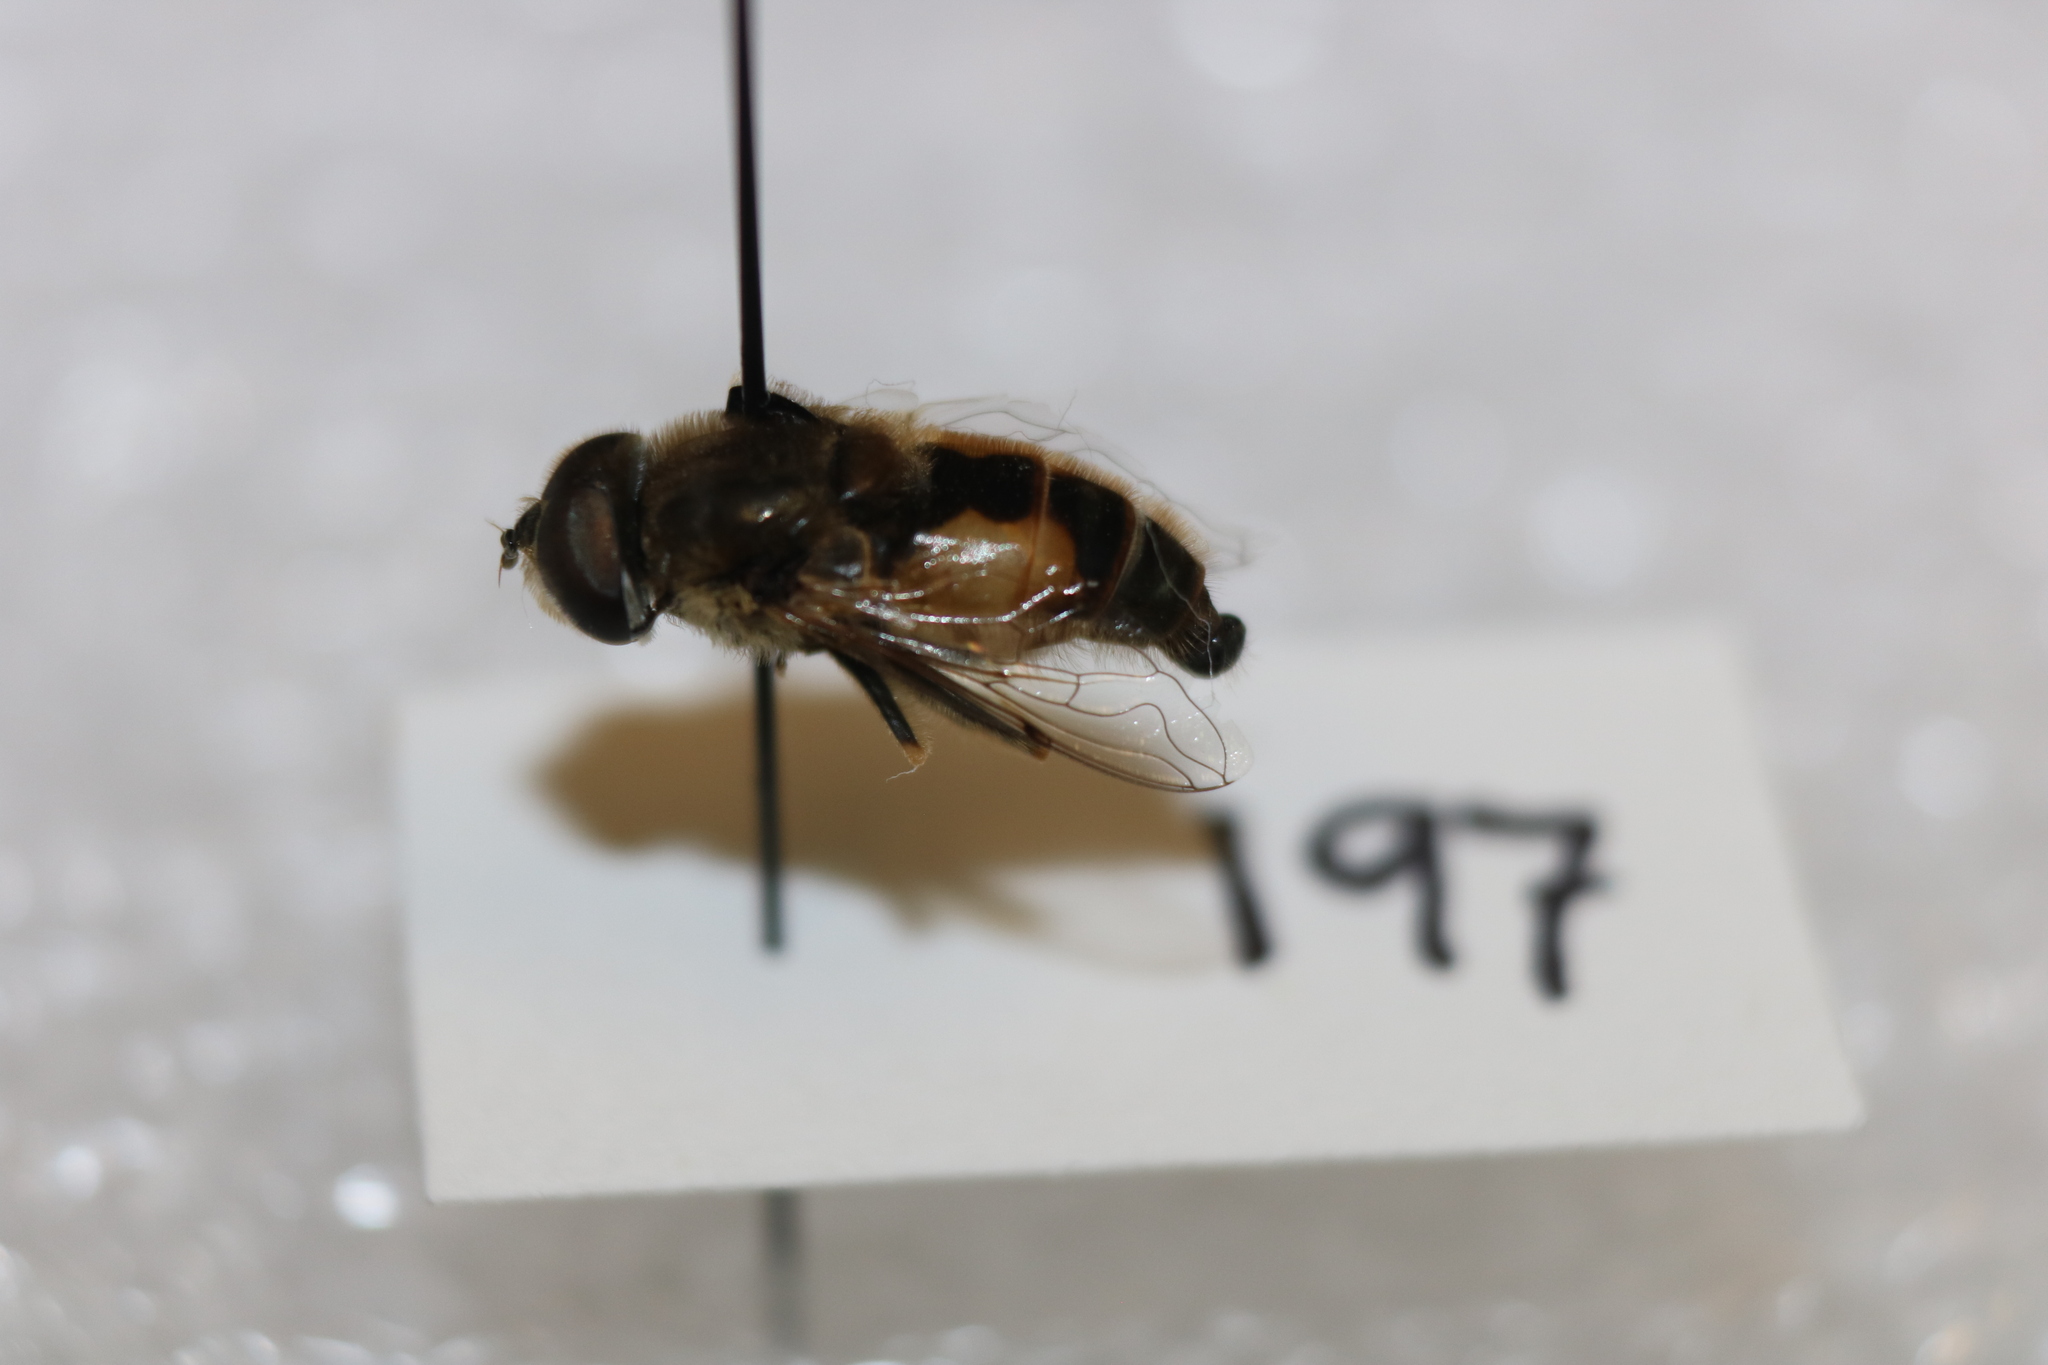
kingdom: Animalia
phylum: Arthropoda
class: Insecta
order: Diptera
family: Syrphidae
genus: Eristalis
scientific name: Eristalis arbustorum
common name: Hover fly
